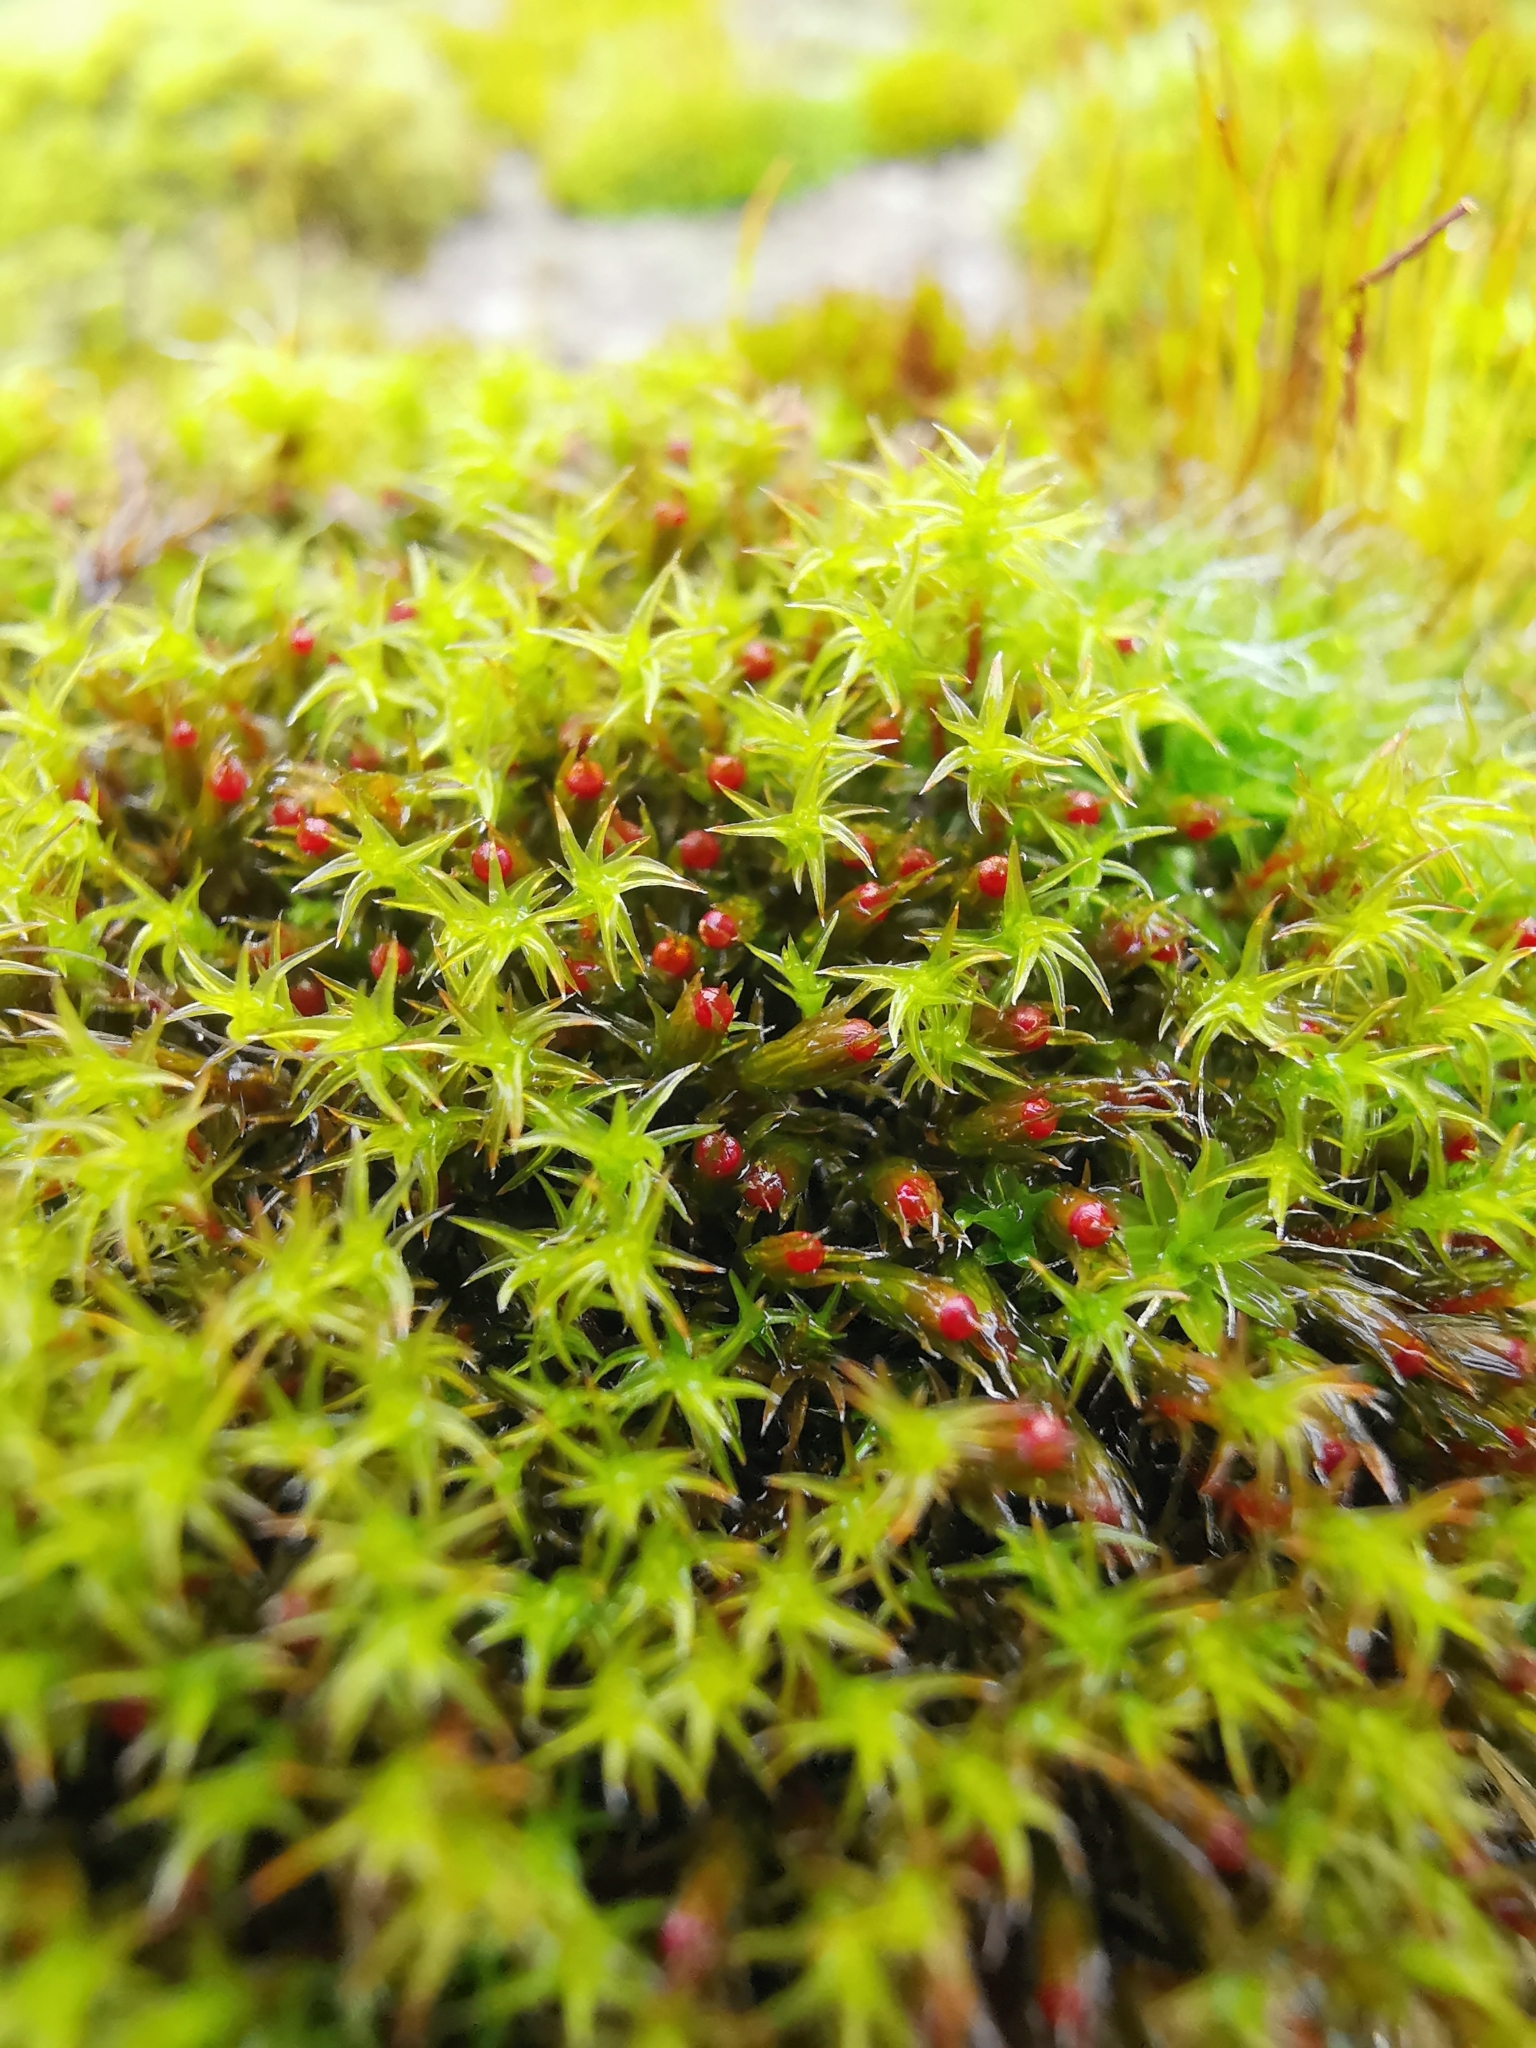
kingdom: Plantae
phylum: Bryophyta
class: Bryopsida
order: Grimmiales
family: Grimmiaceae
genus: Schistidium
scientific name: Schistidium crassipilum
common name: Thickpoint bloom moss
